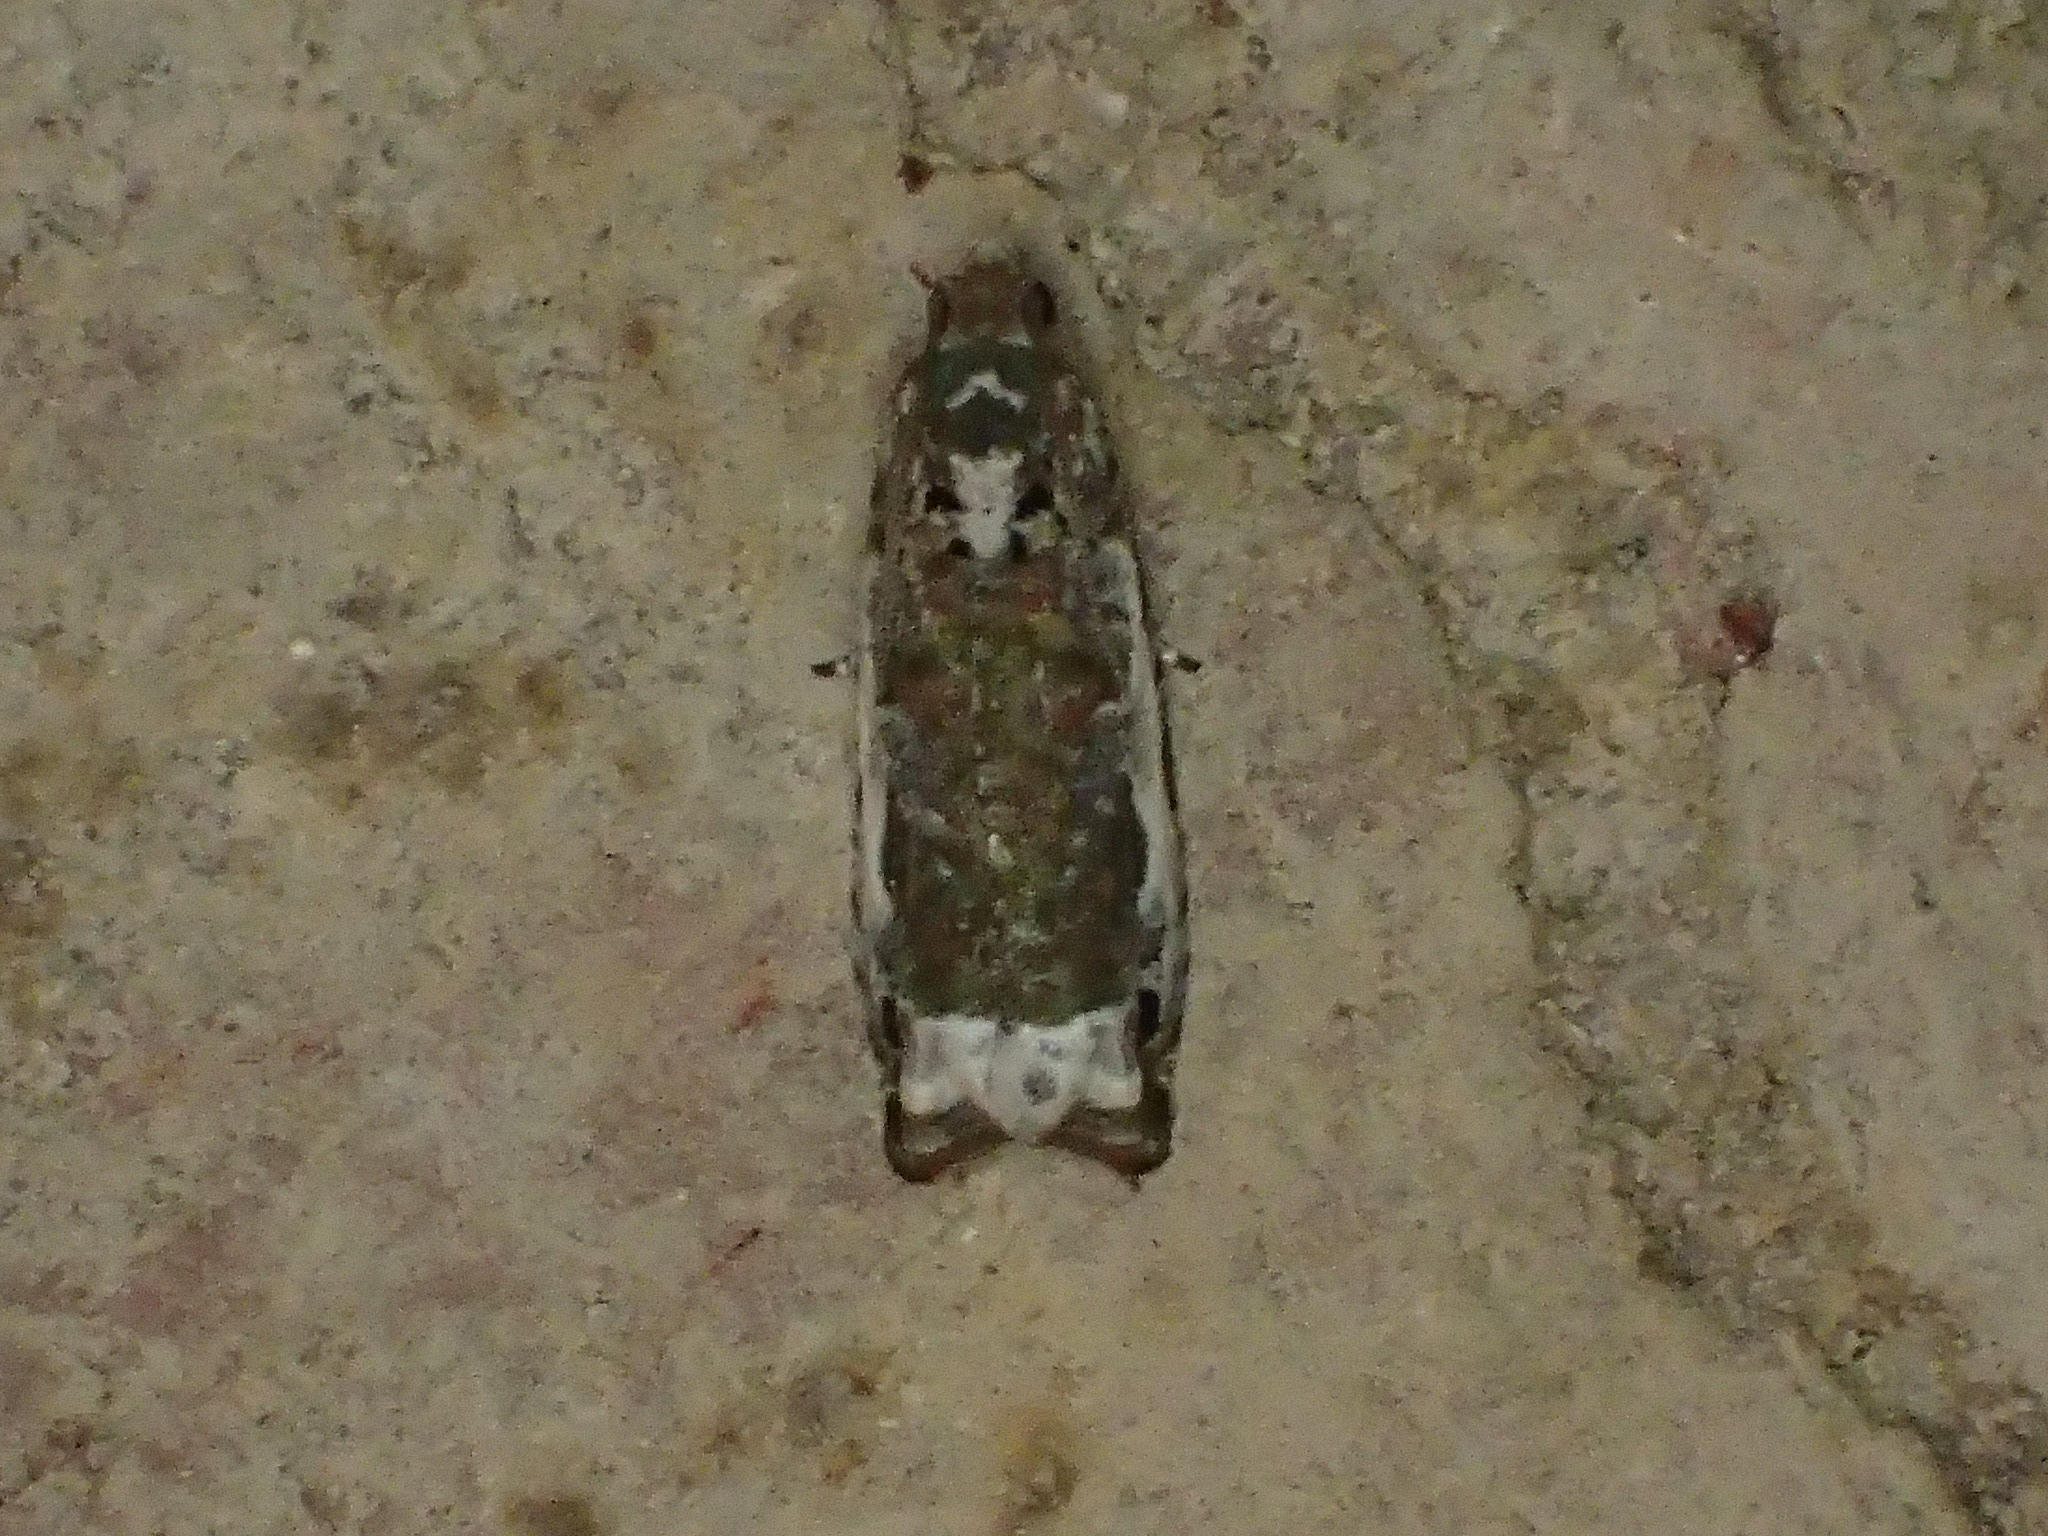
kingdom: Animalia
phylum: Arthropoda
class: Insecta
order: Lepidoptera
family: Tortricidae
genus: Proteoteras
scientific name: Proteoteras naracana
